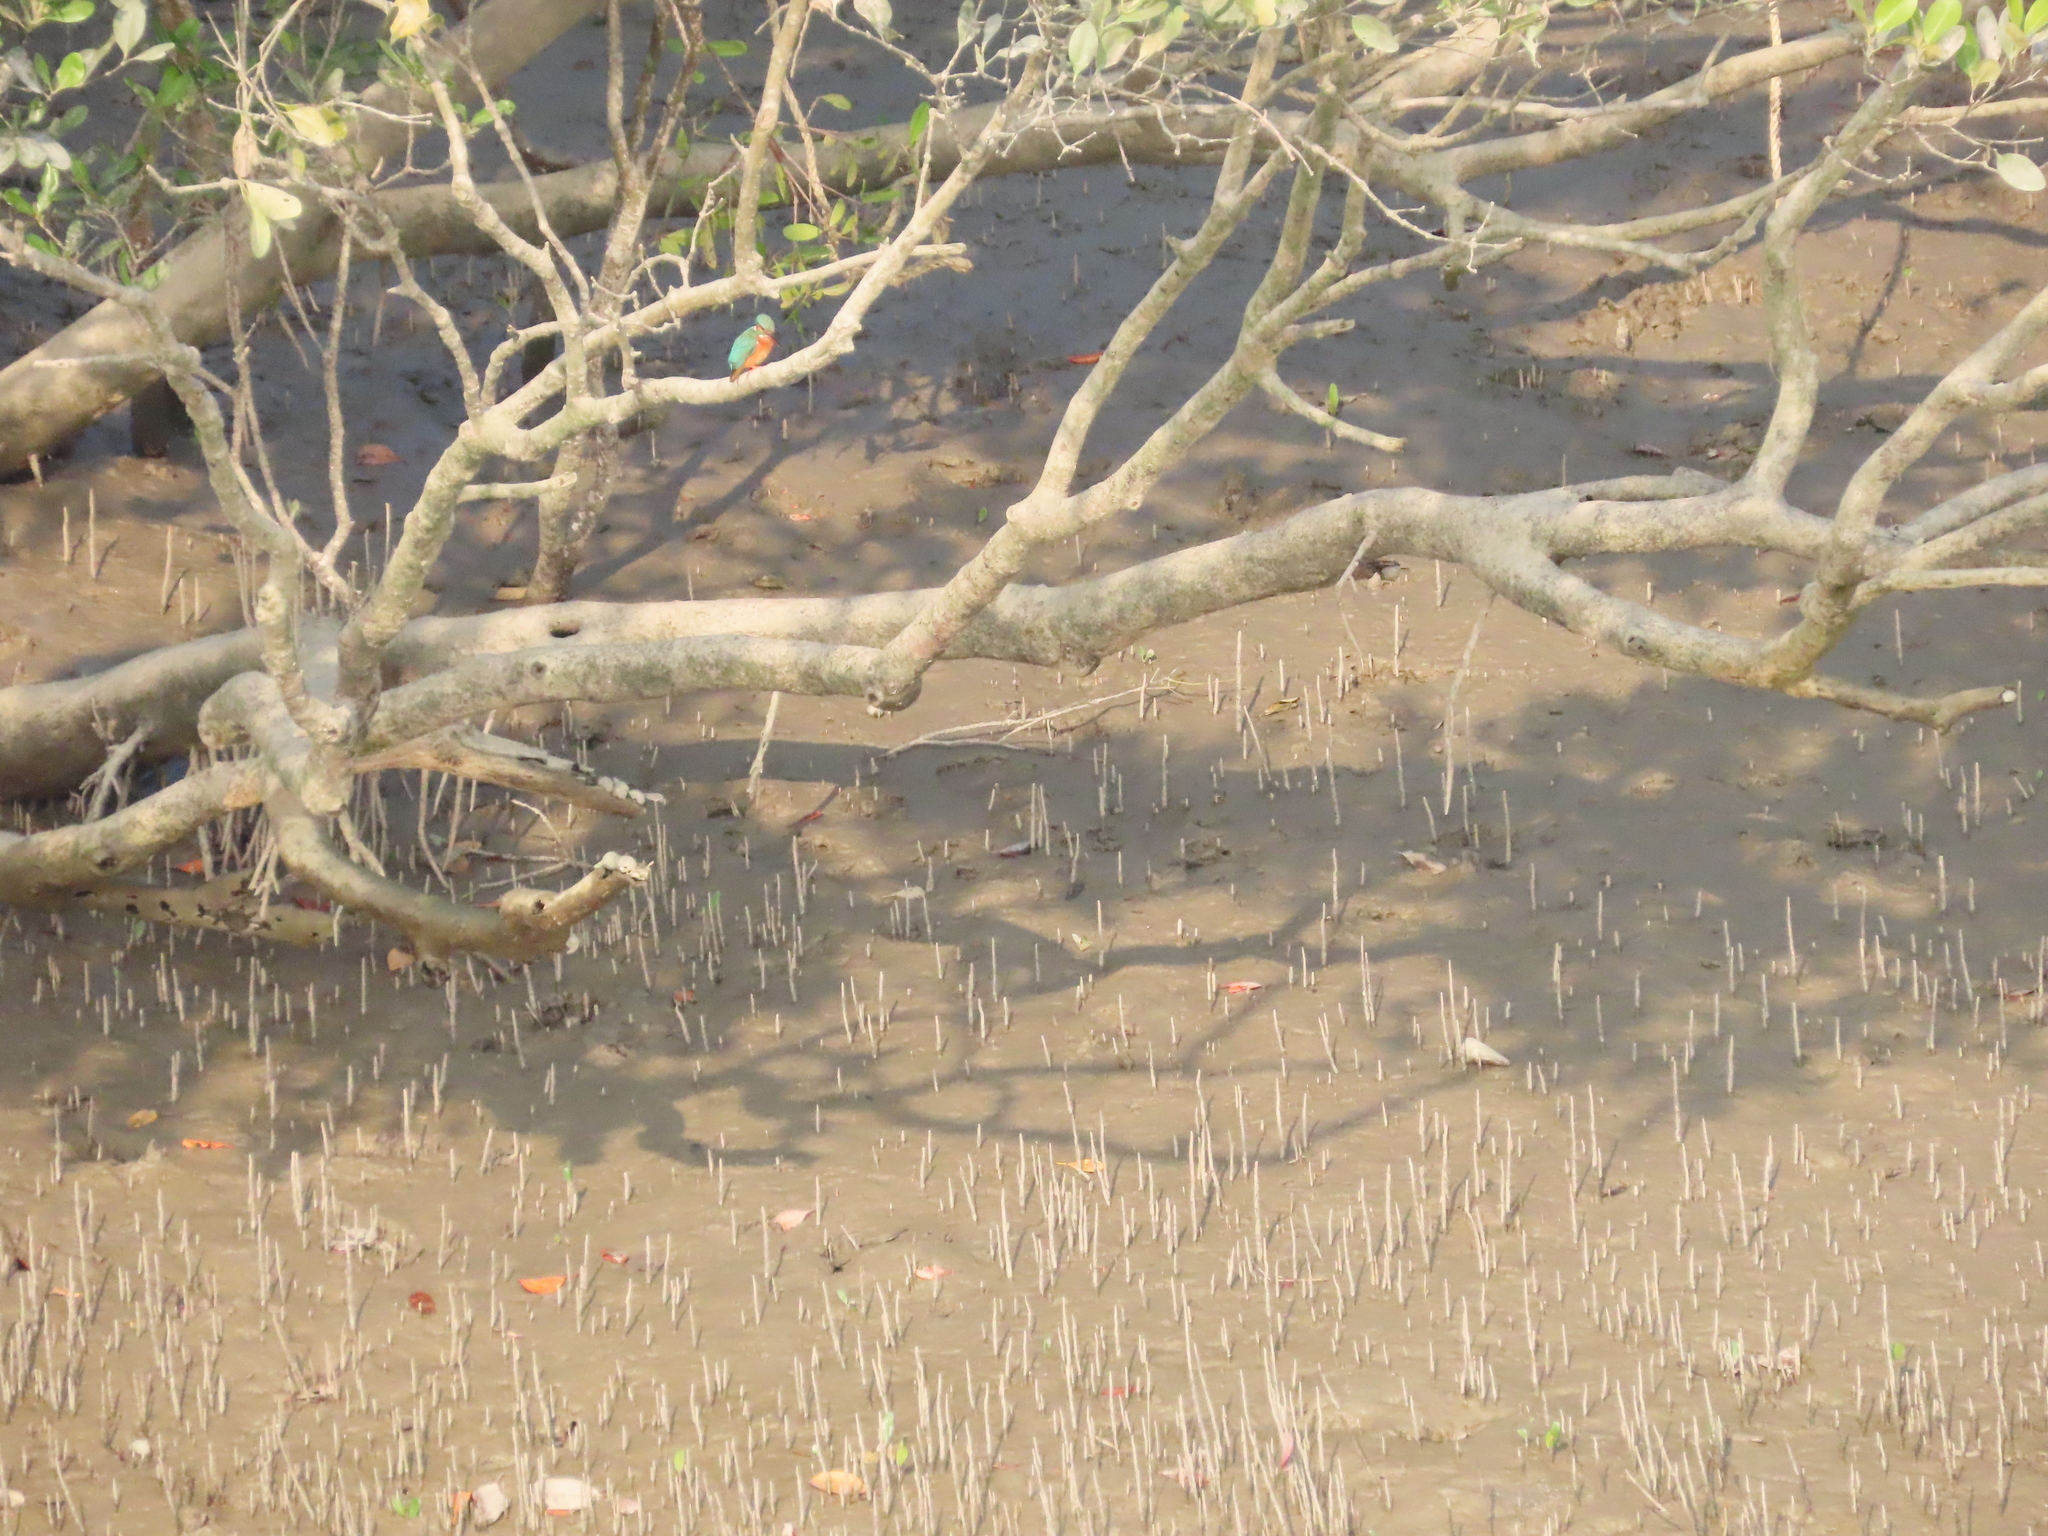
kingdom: Animalia
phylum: Chordata
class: Aves
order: Coraciiformes
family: Alcedinidae
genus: Alcedo
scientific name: Alcedo atthis
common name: Common kingfisher
